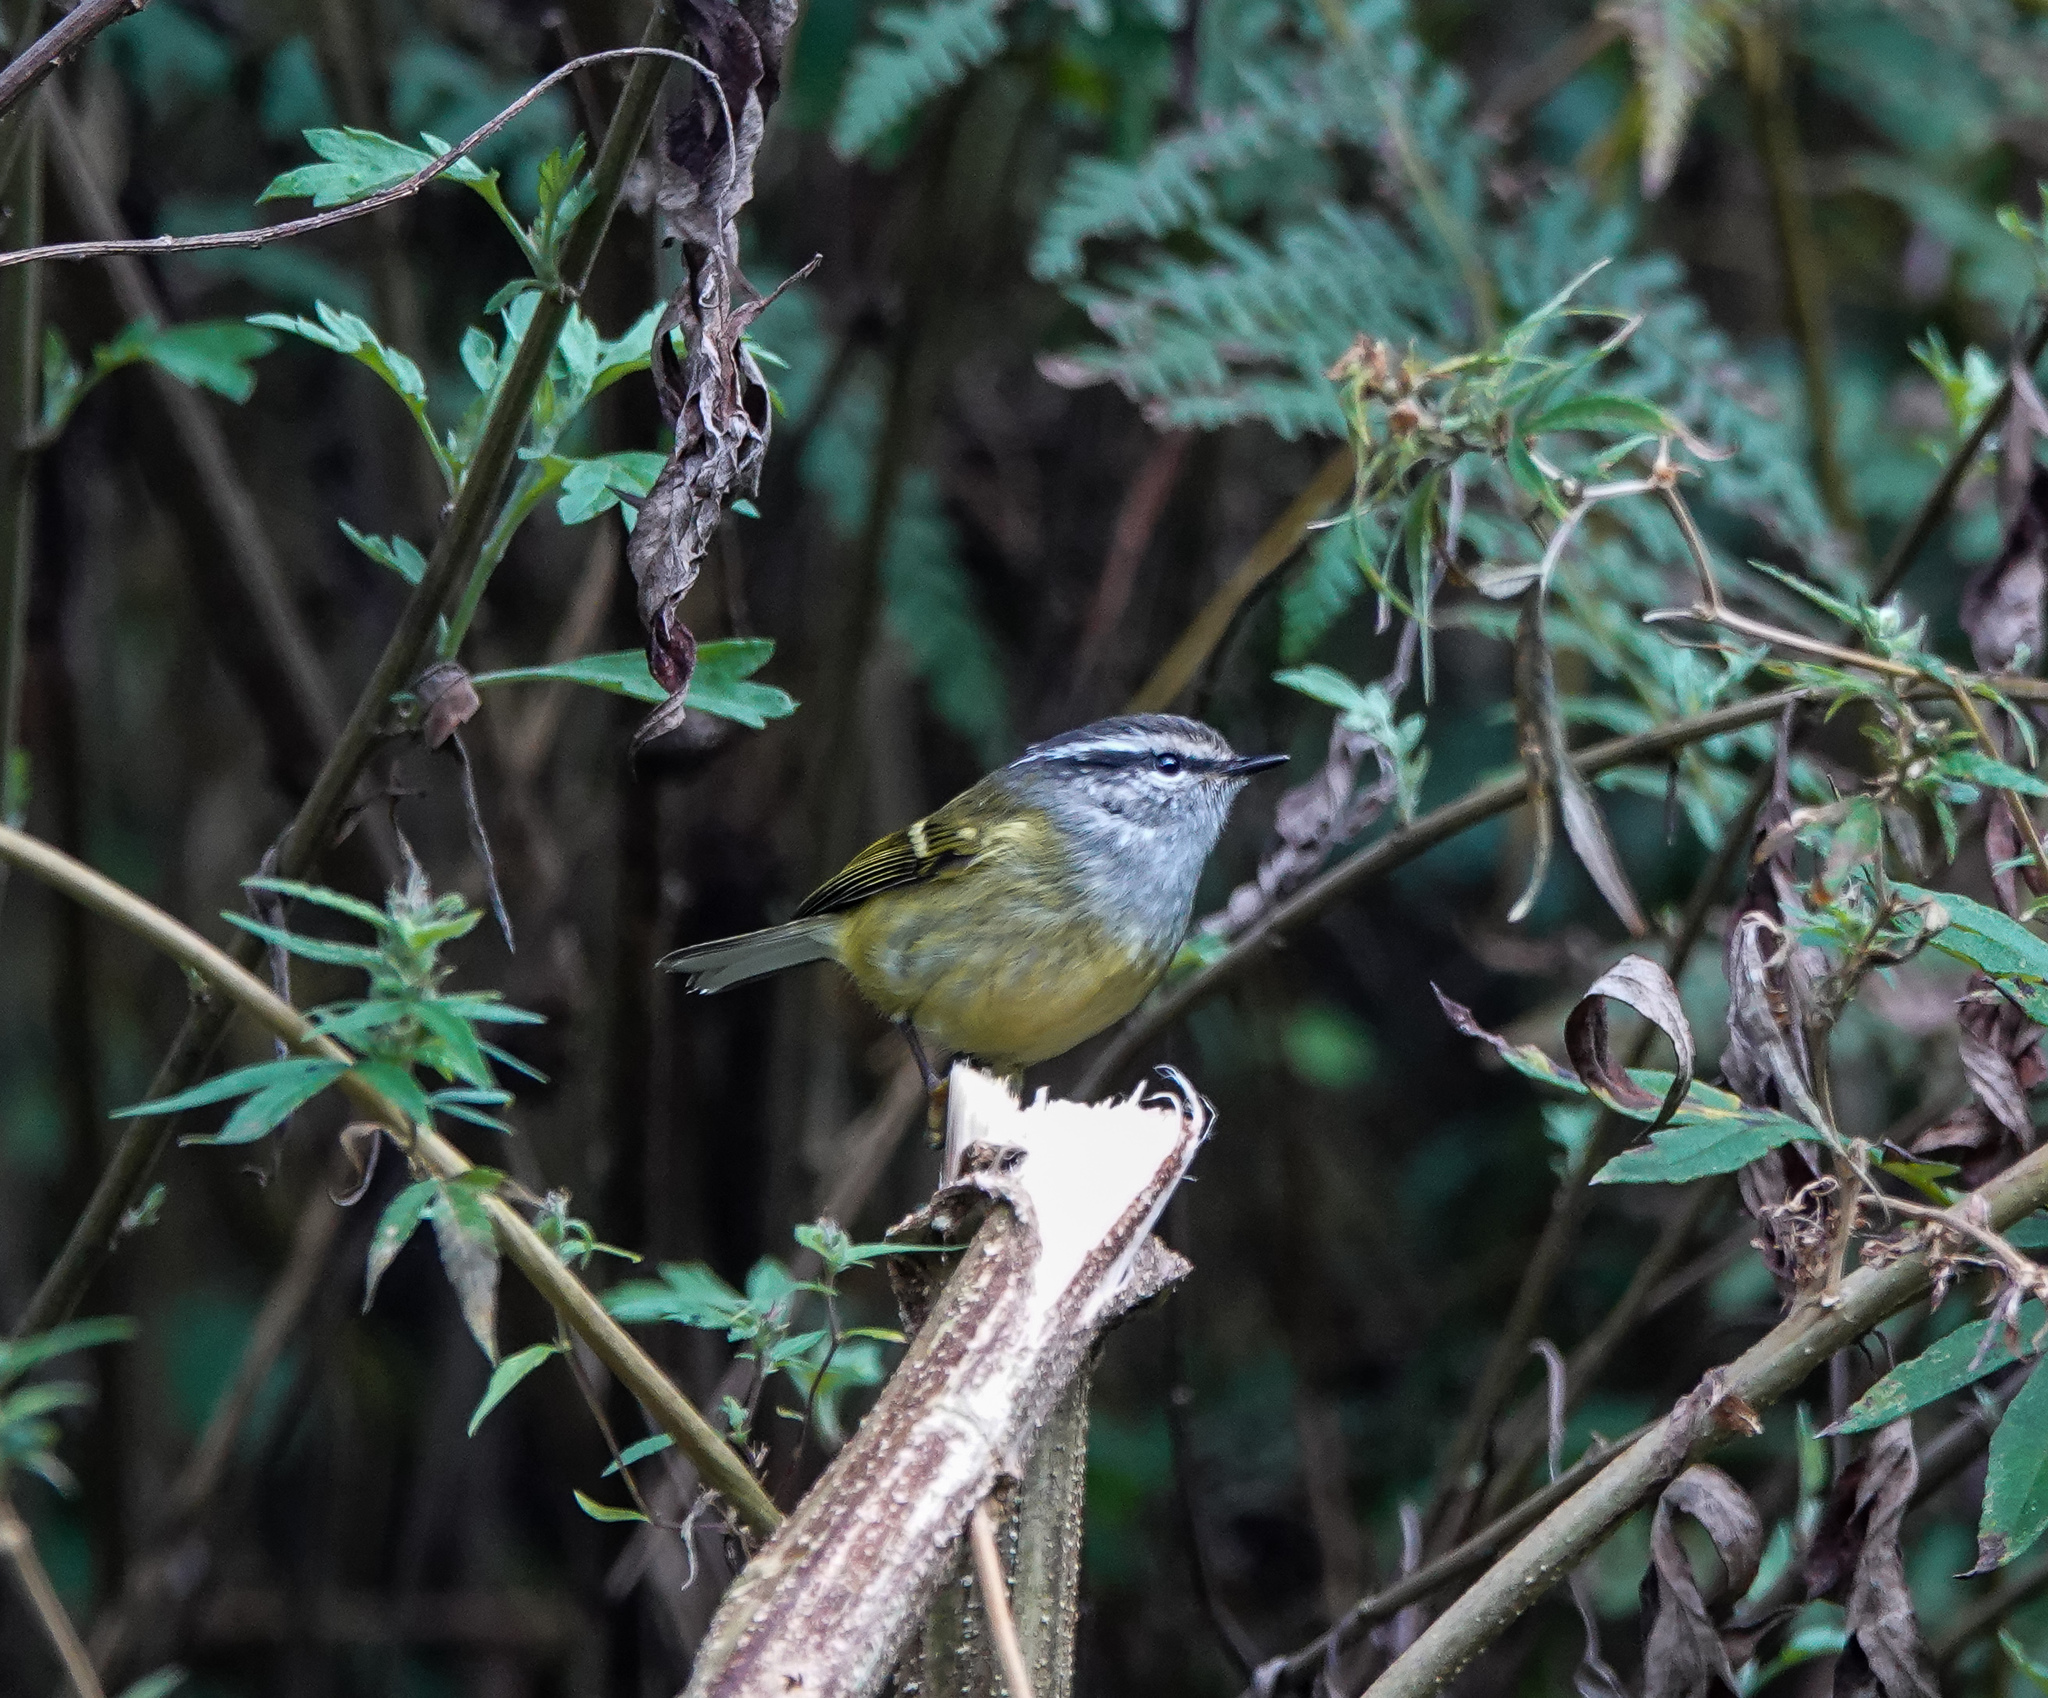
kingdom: Animalia
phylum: Chordata
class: Aves
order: Passeriformes
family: Phylloscopidae
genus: Phylloscopus
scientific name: Phylloscopus maculipennis
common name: Ashy-throated warbler
